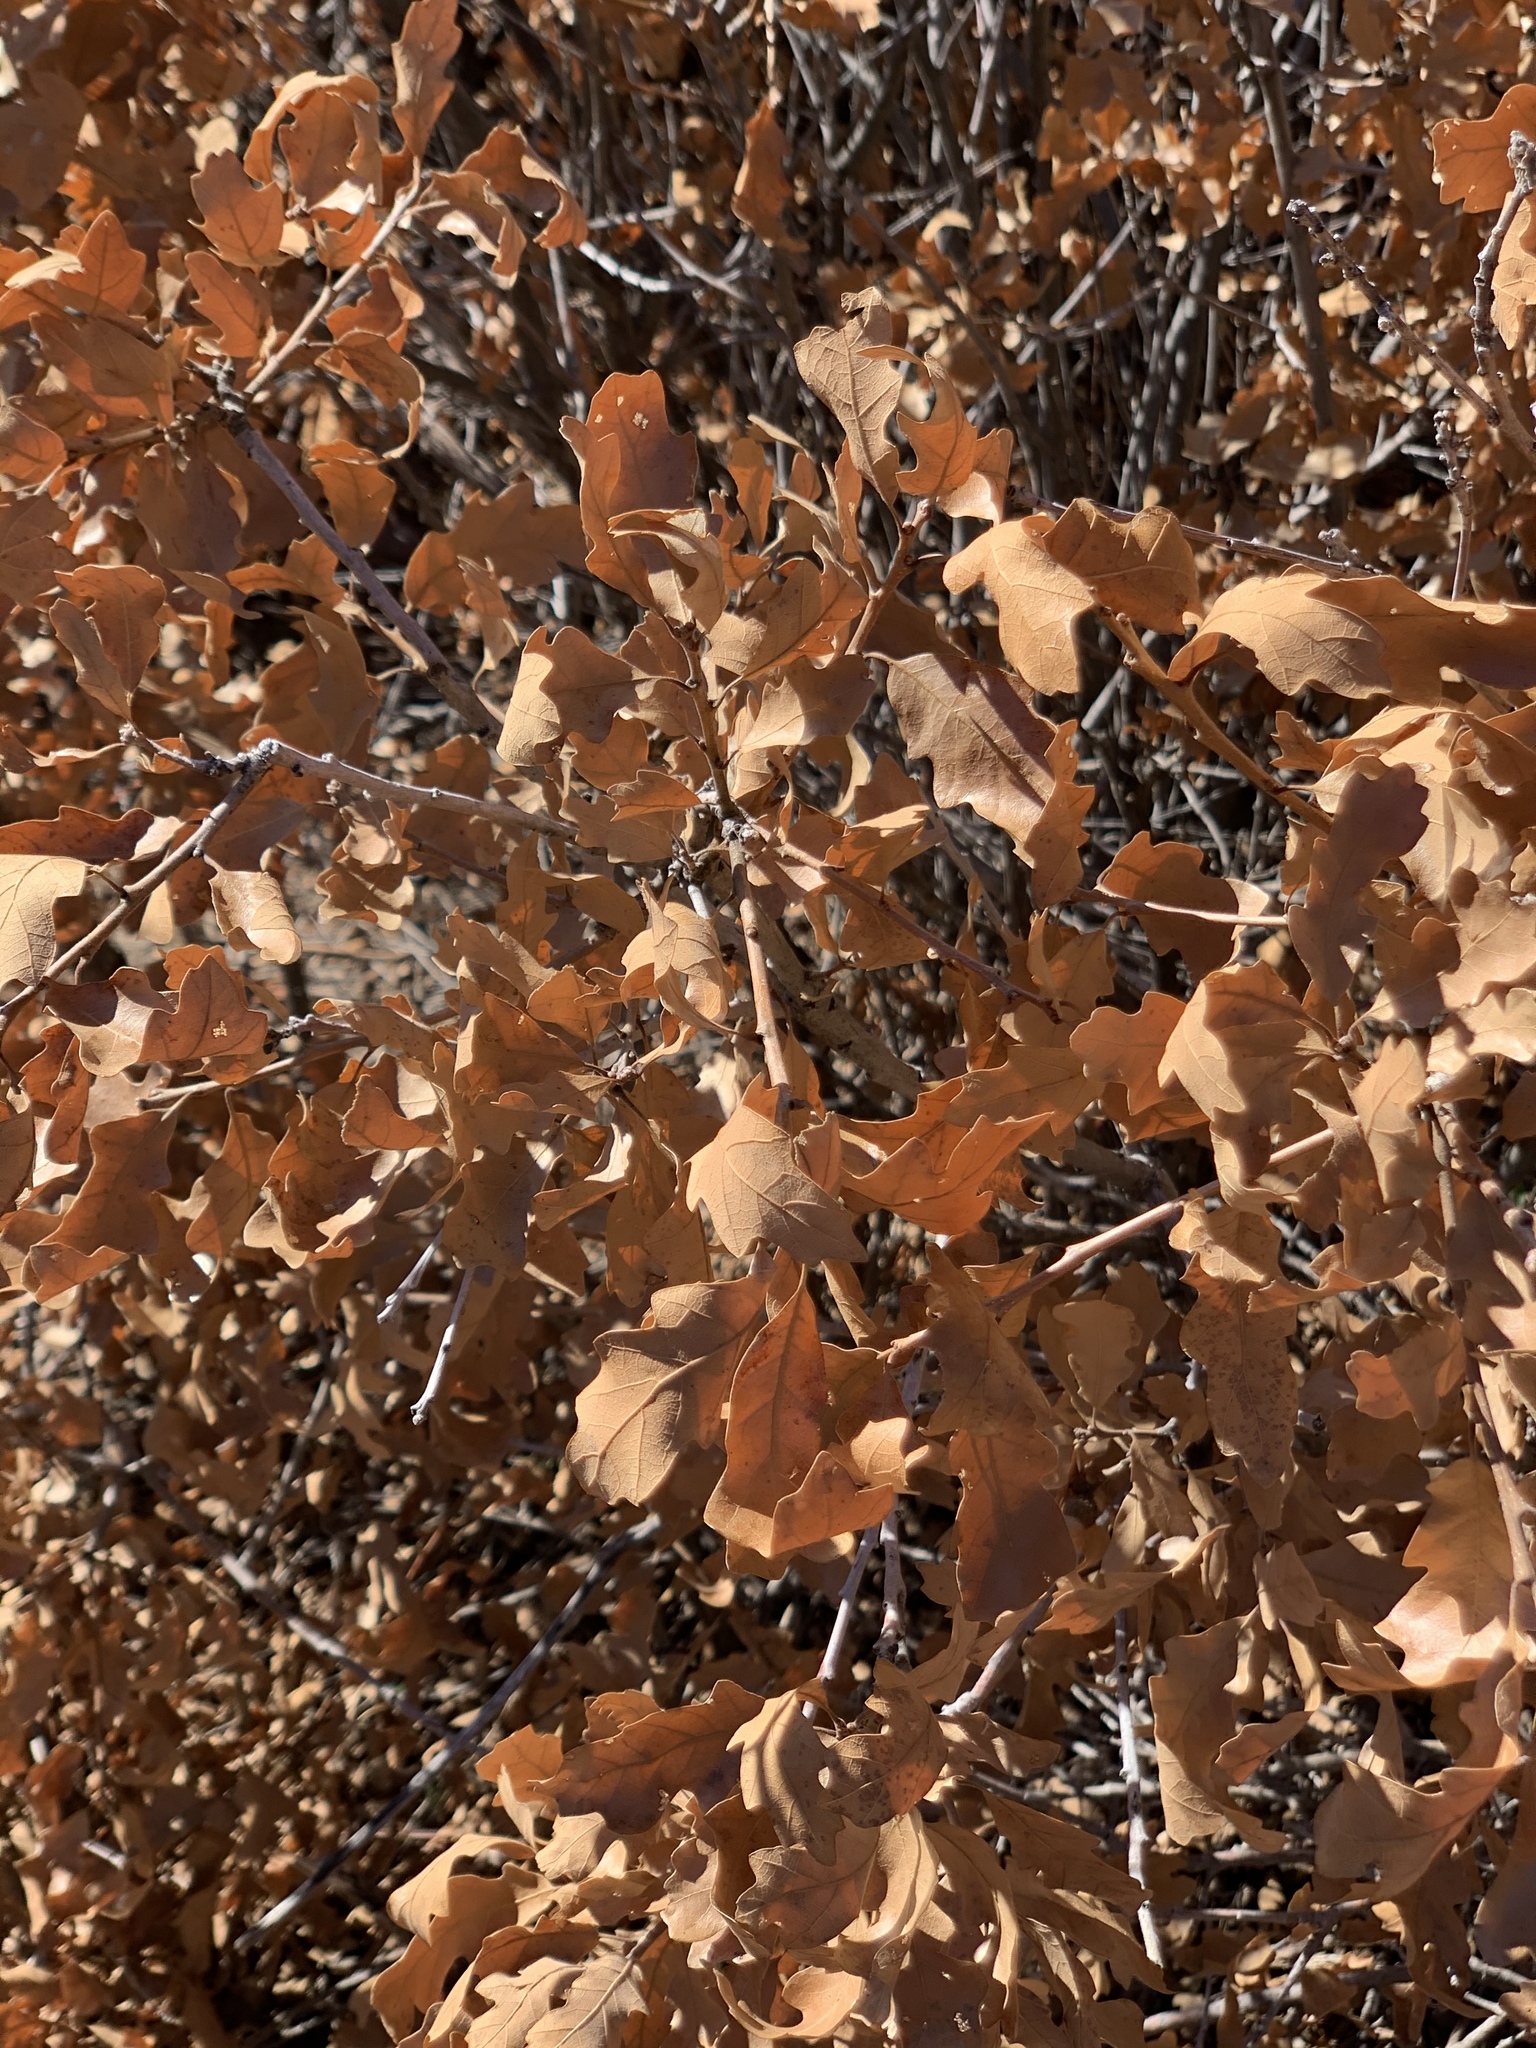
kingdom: Plantae
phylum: Tracheophyta
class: Magnoliopsida
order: Fagales
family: Fagaceae
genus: Quercus
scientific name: Quercus gambelii
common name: Gambel oak
